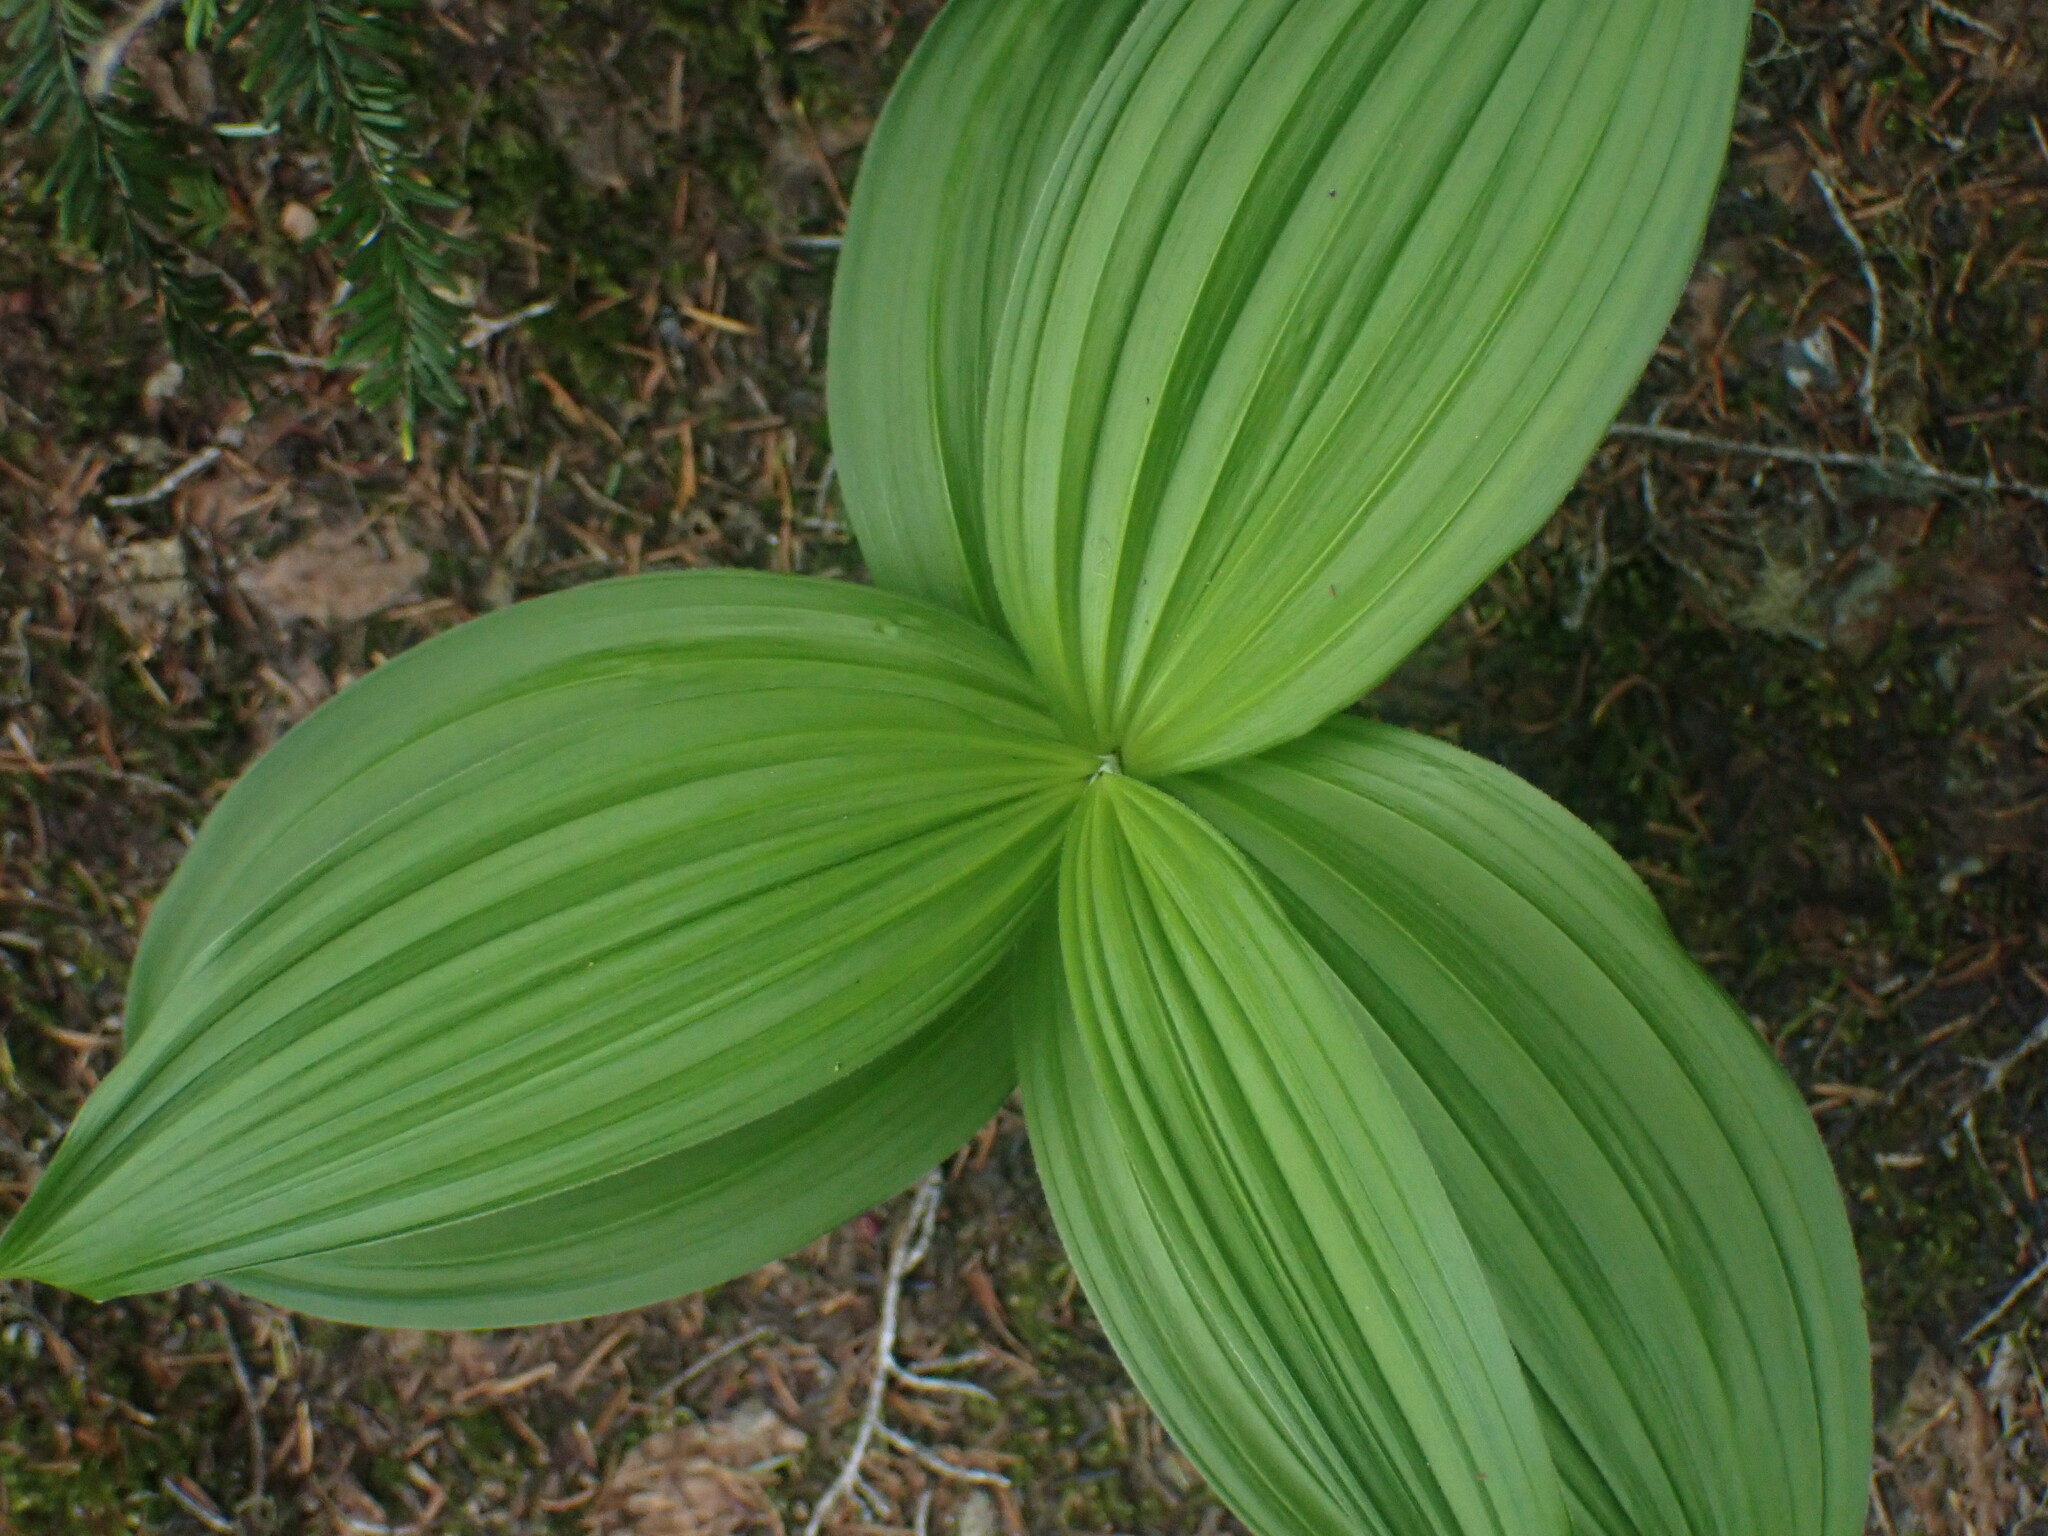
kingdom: Plantae
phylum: Tracheophyta
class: Liliopsida
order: Liliales
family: Melanthiaceae
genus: Veratrum
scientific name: Veratrum viride
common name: American false hellebore
